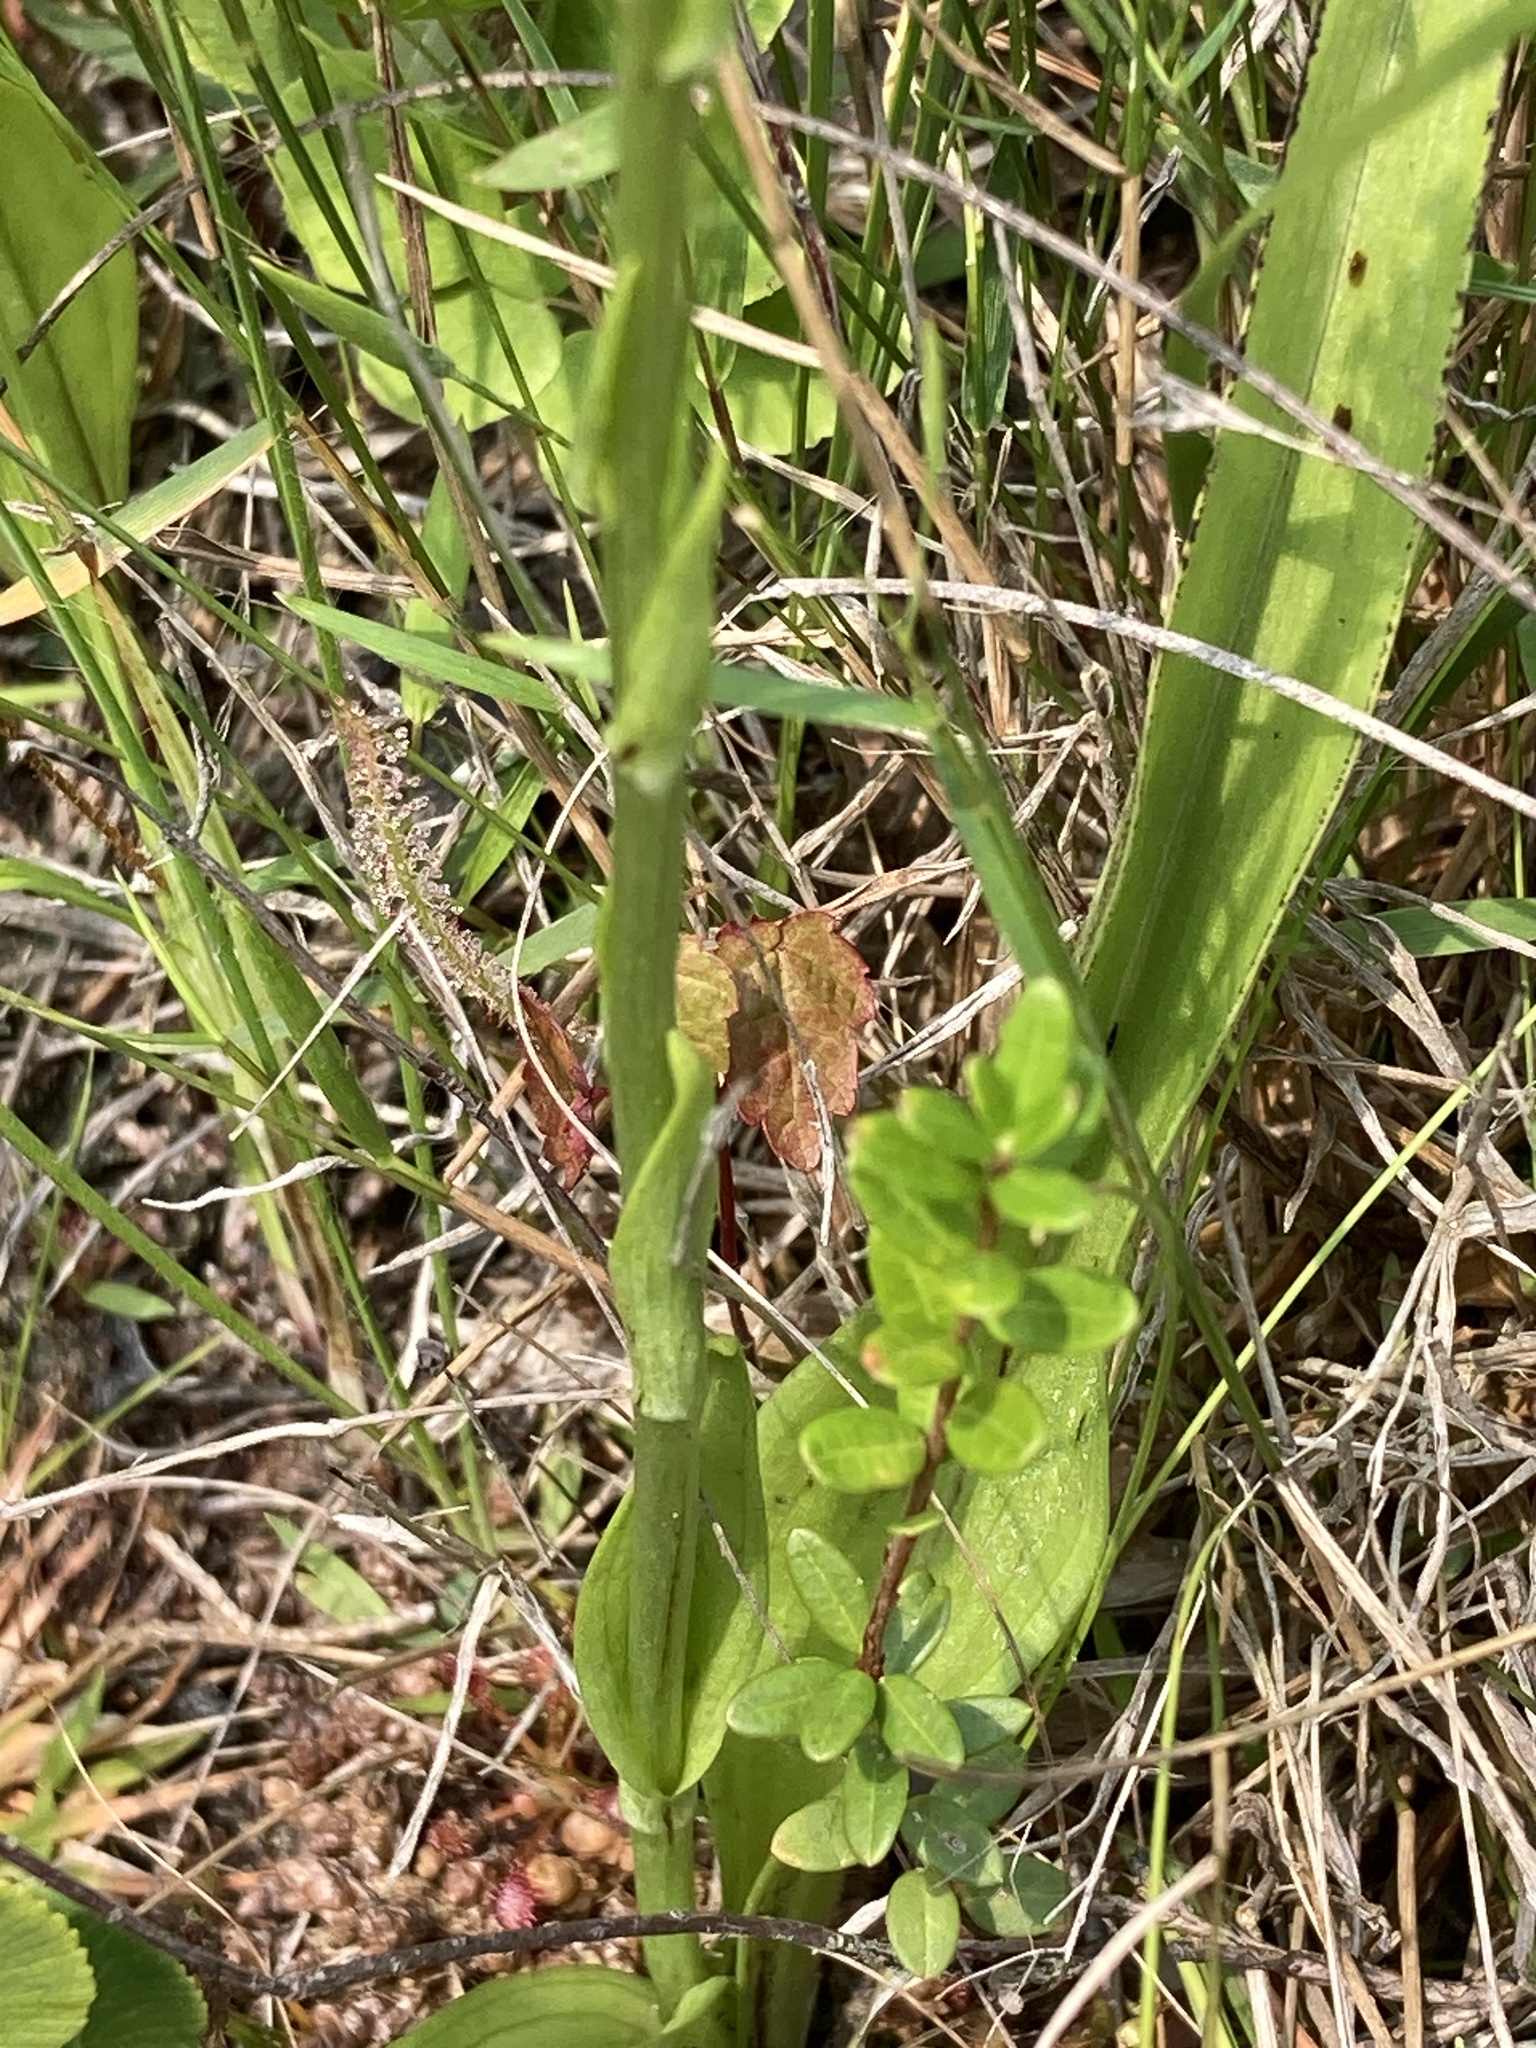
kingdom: Plantae
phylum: Tracheophyta
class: Liliopsida
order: Asparagales
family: Orchidaceae
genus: Platanthera
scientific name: Platanthera integra
